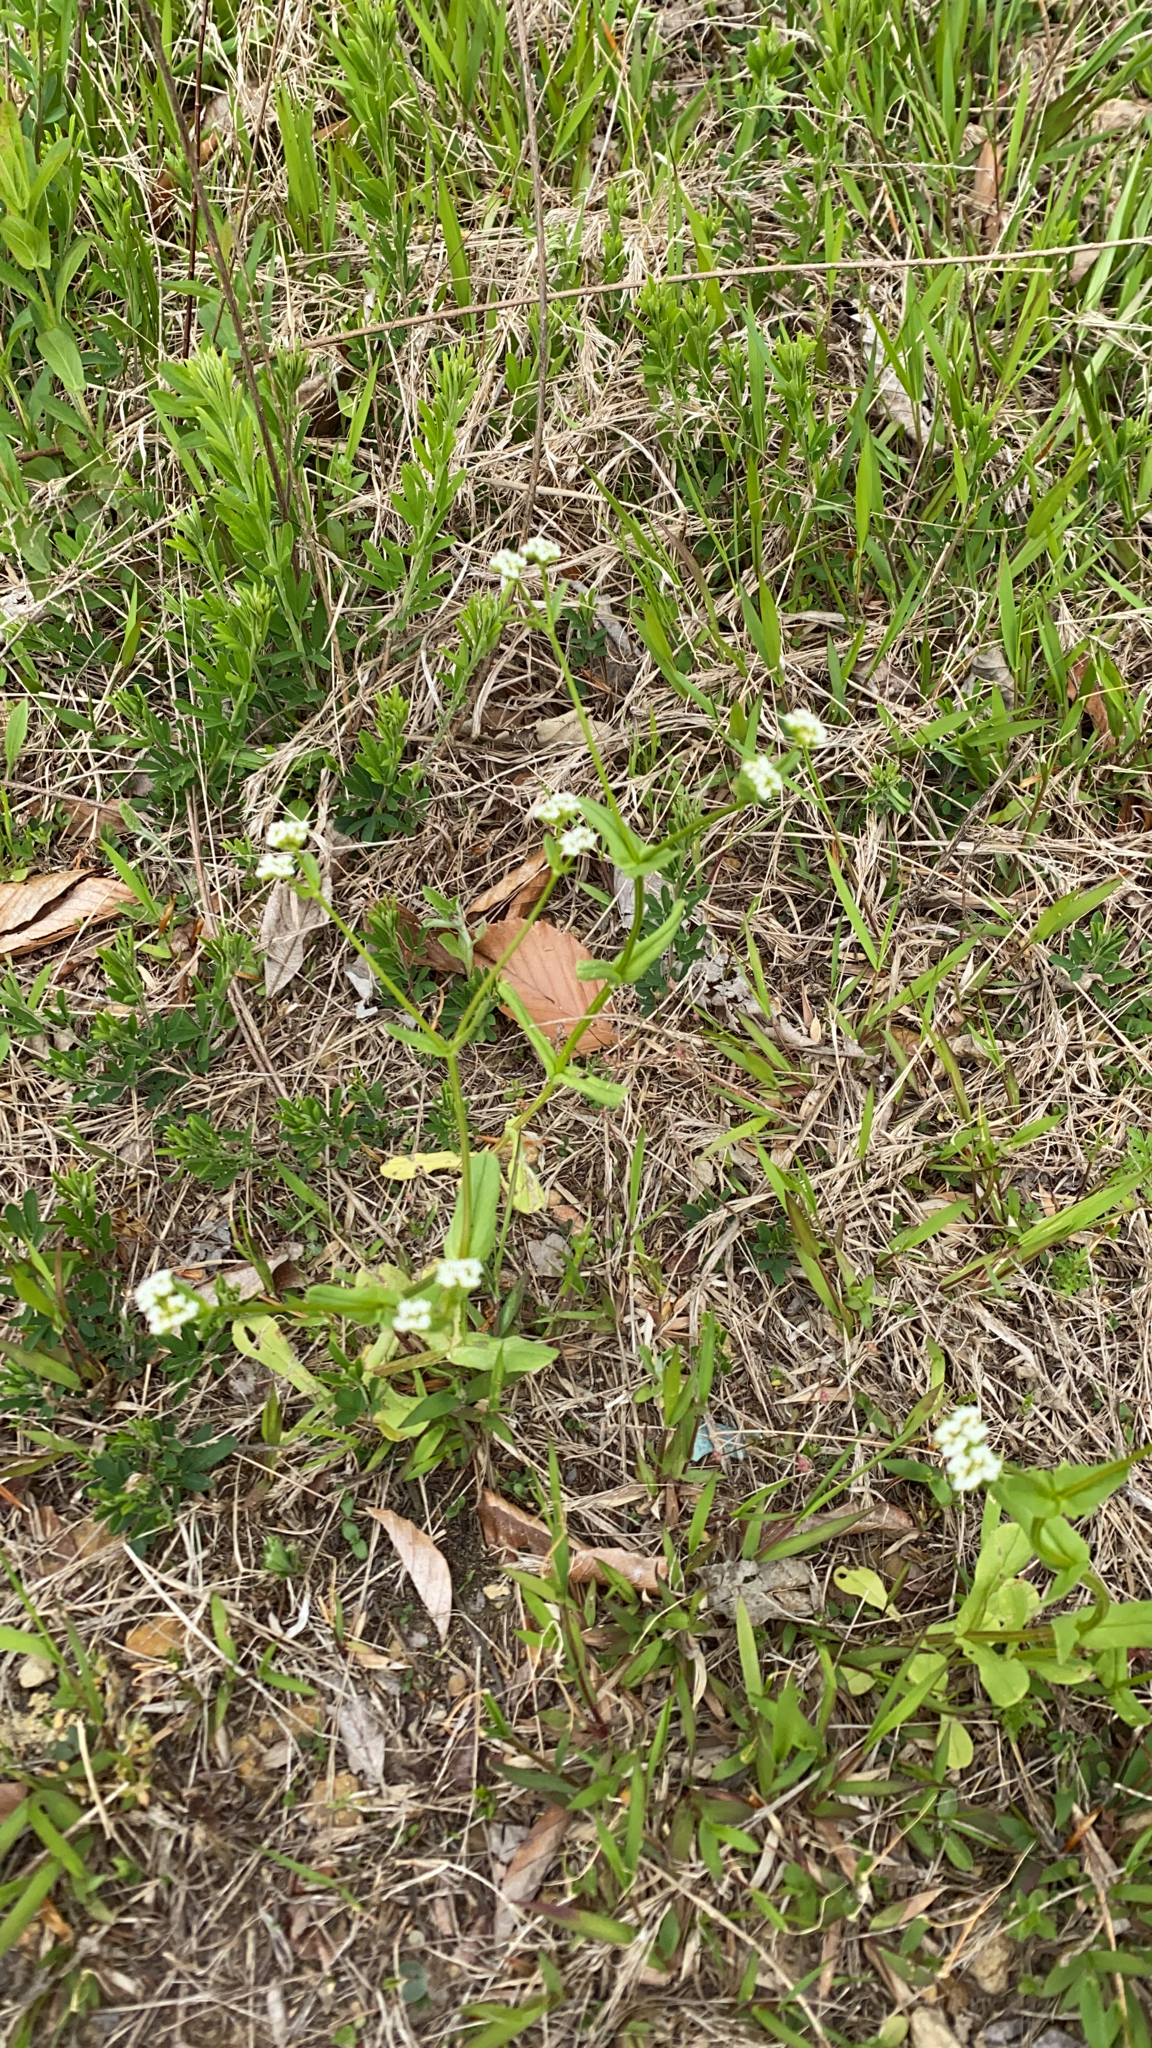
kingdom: Plantae
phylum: Tracheophyta
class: Magnoliopsida
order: Dipsacales
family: Caprifoliaceae
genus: Valerianella
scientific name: Valerianella radiata
